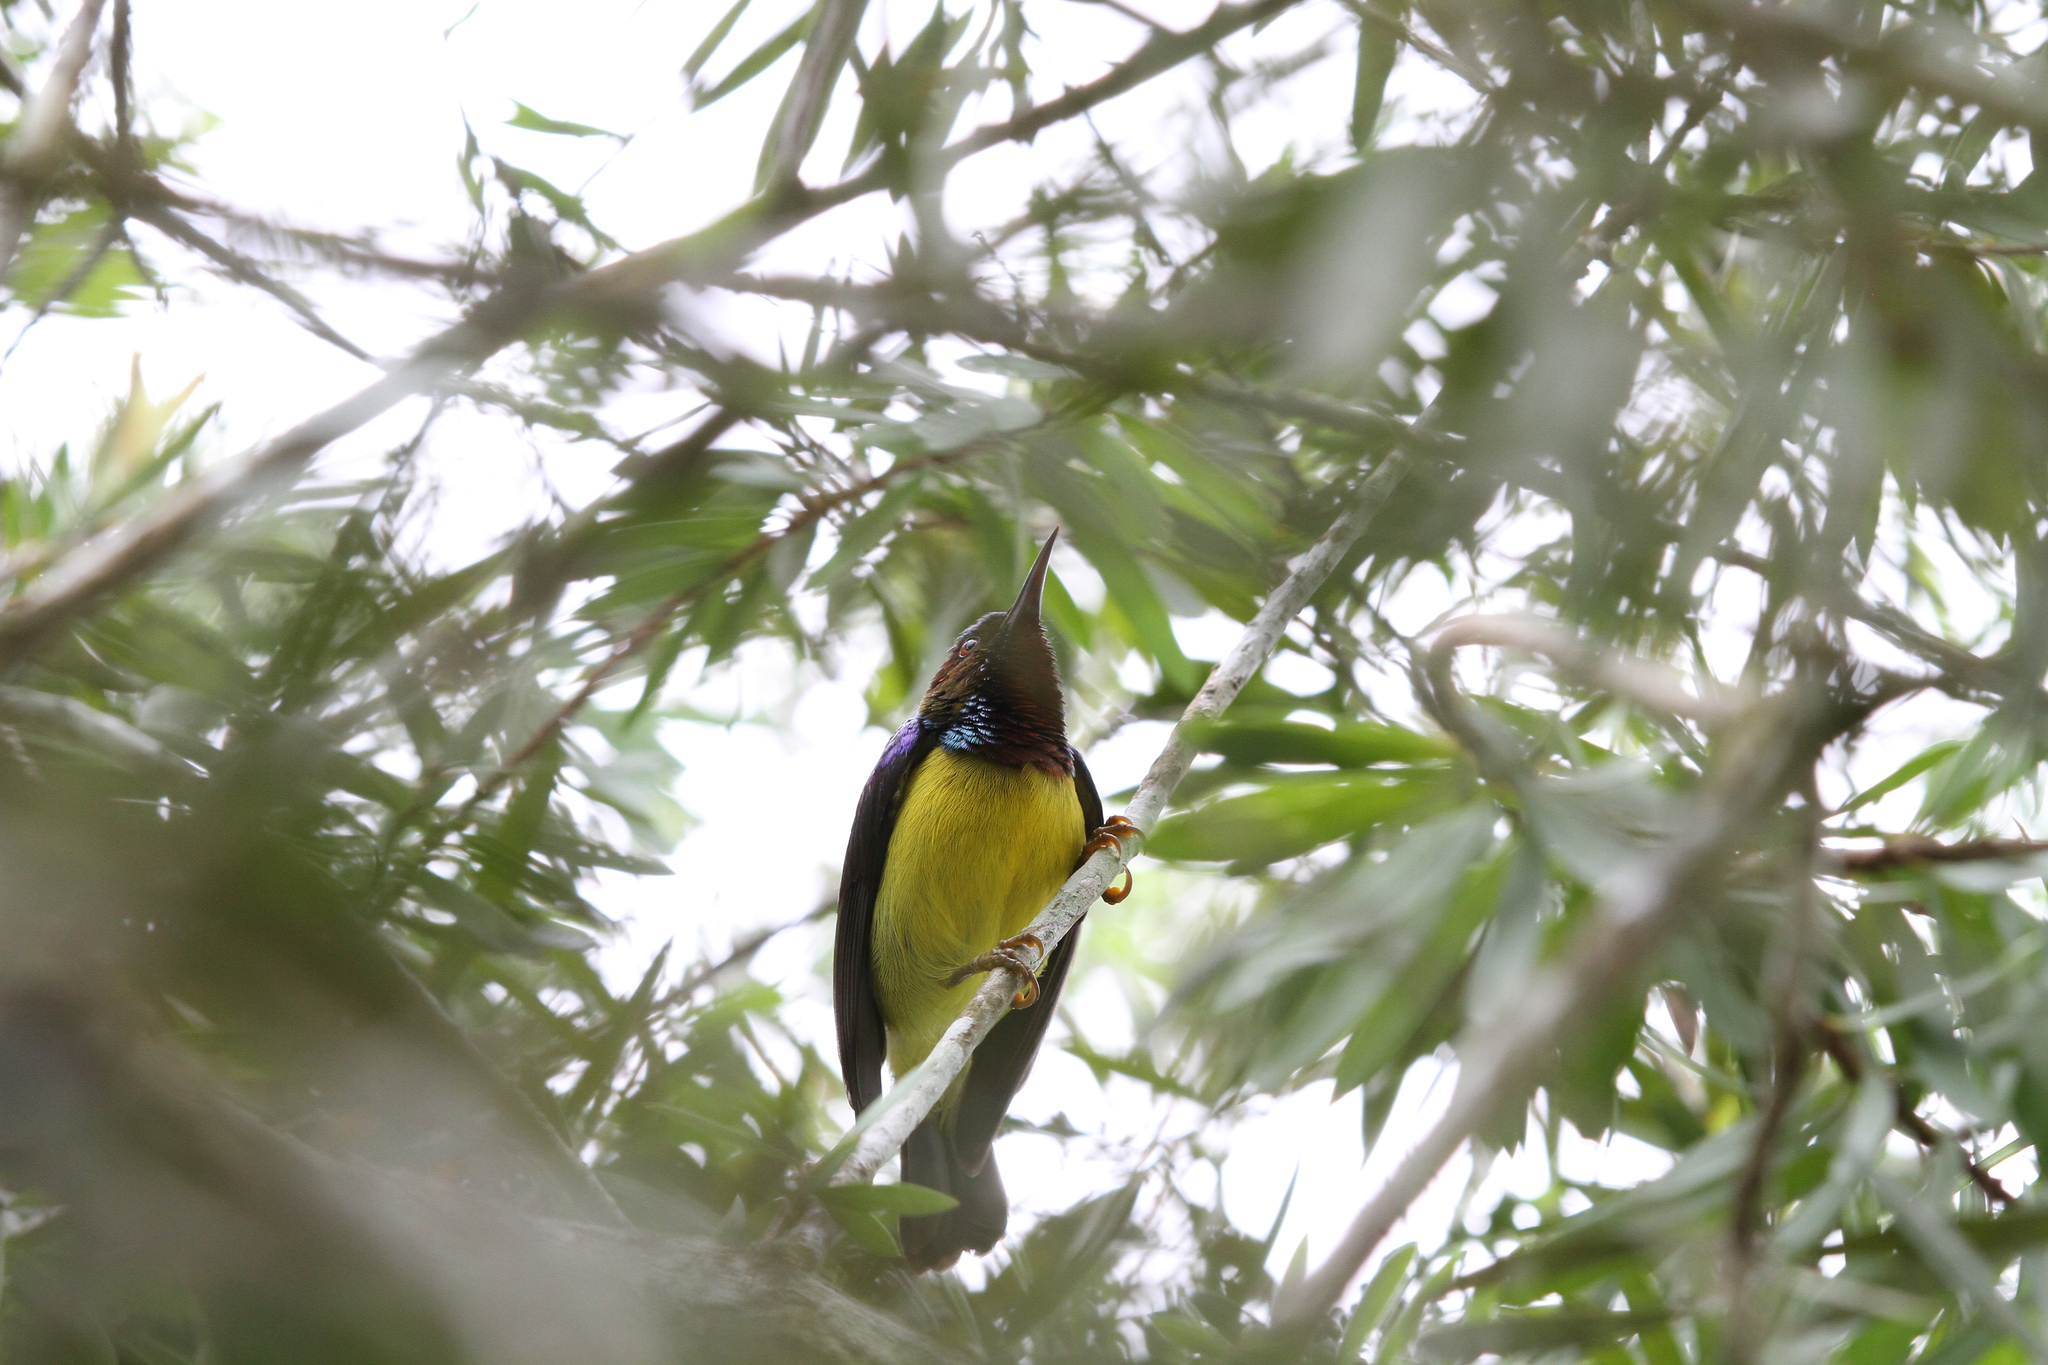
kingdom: Animalia
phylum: Chordata
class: Aves
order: Passeriformes
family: Nectariniidae
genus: Anthreptes
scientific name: Anthreptes rhodolaemus
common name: Red-throated sunbird
